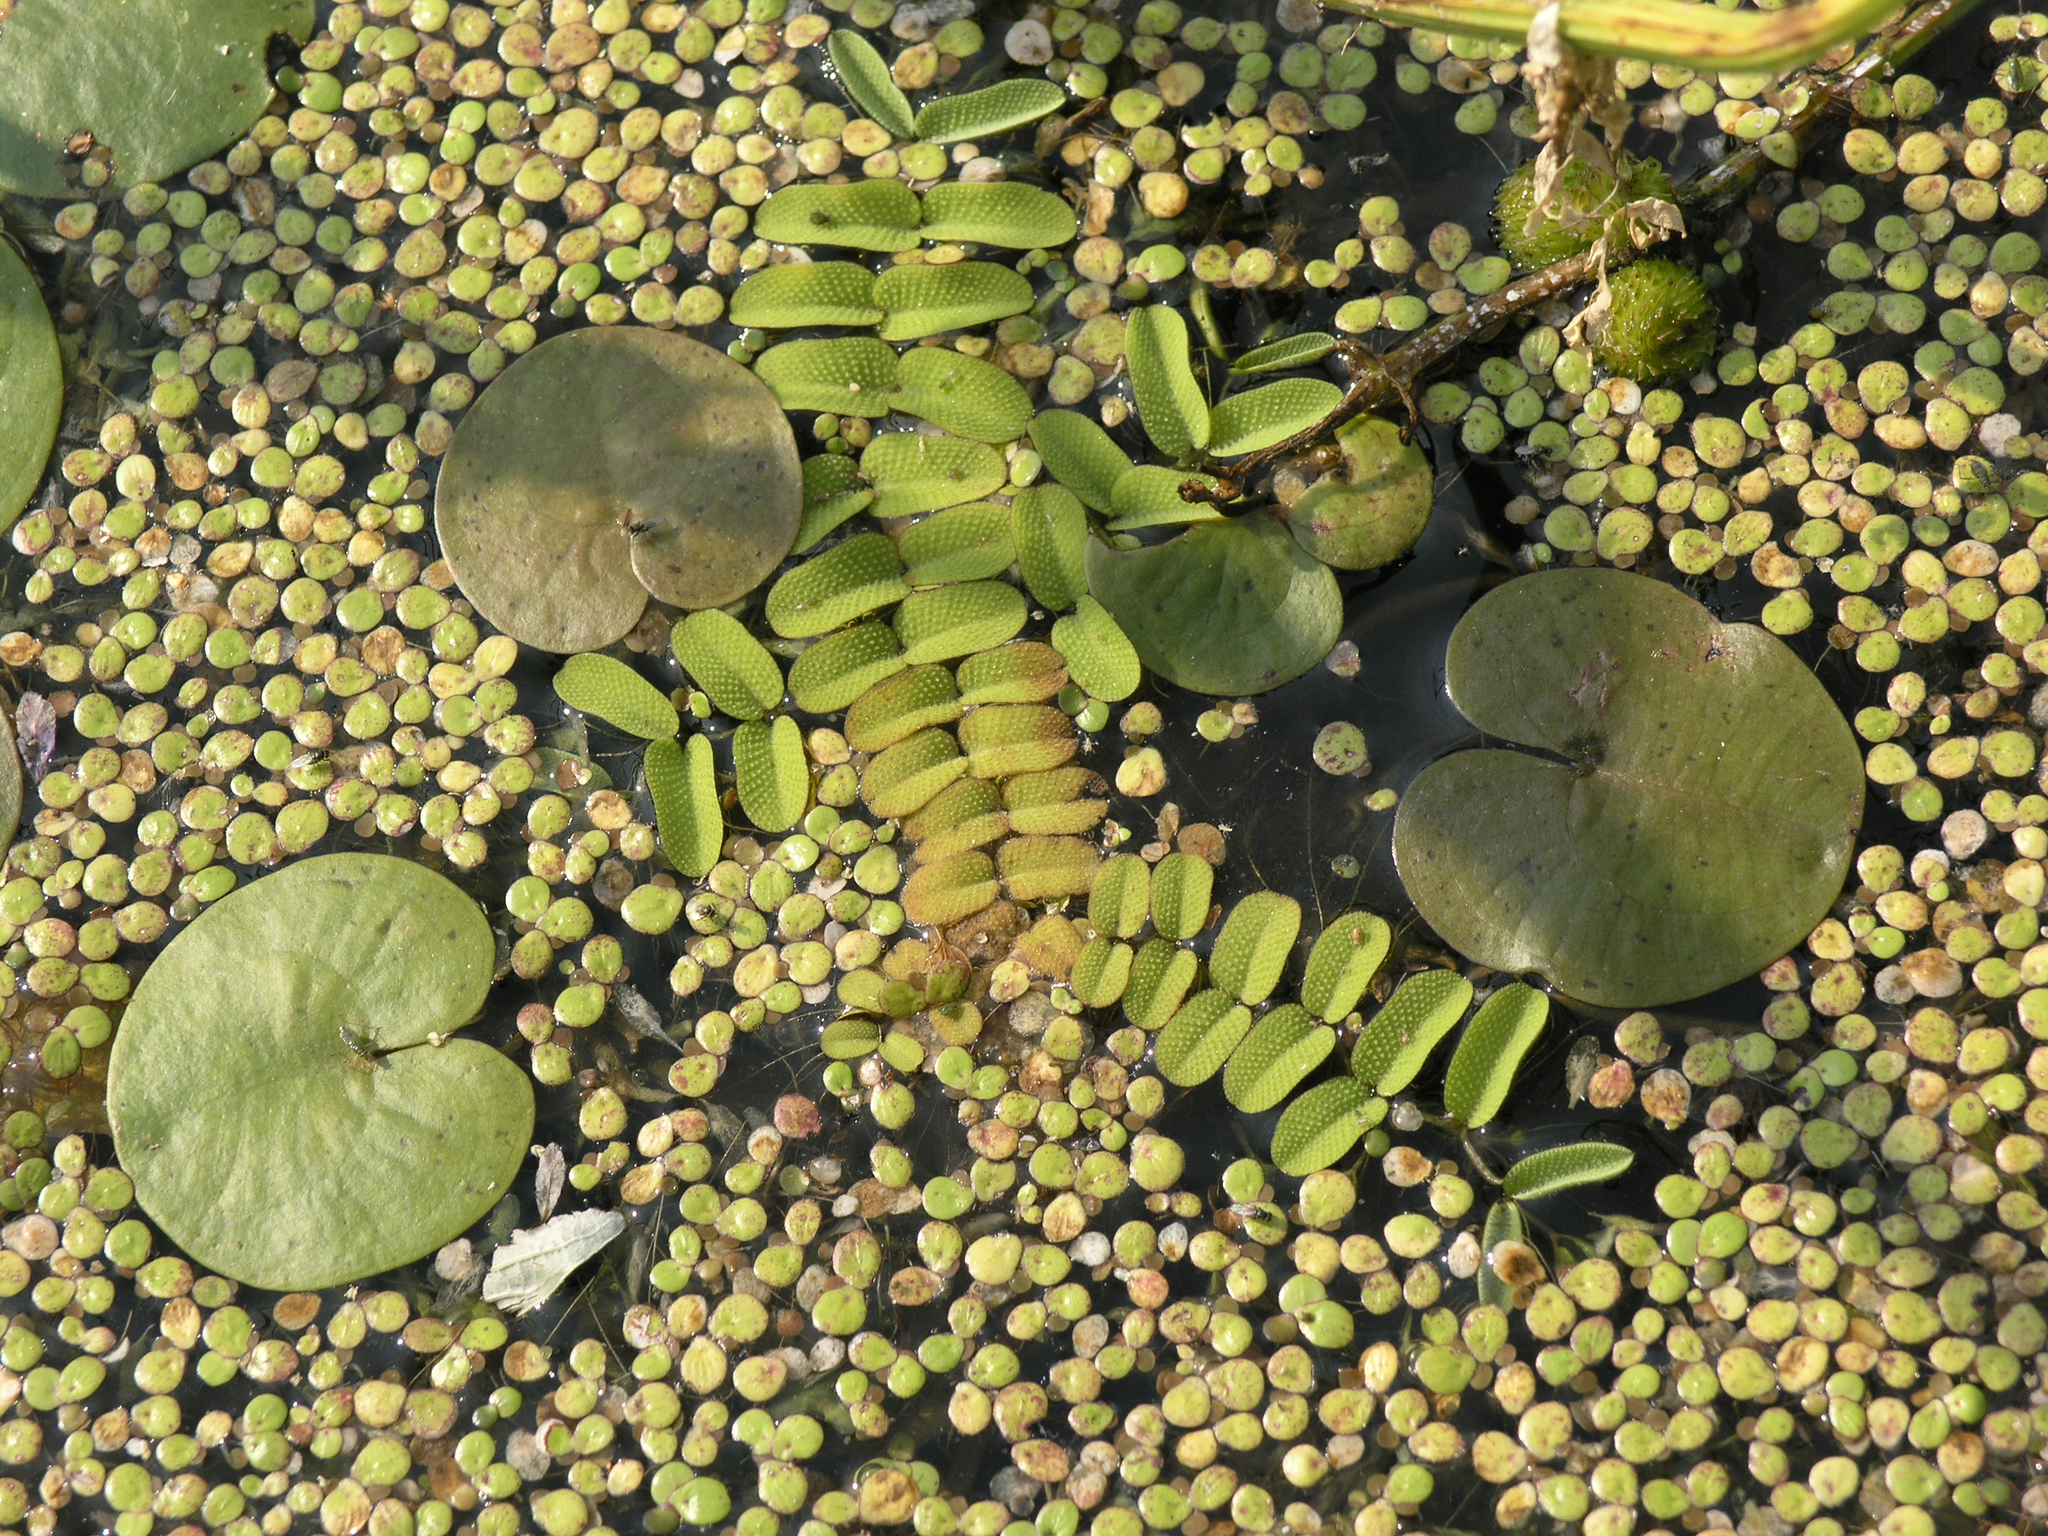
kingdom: Plantae
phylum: Tracheophyta
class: Liliopsida
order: Alismatales
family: Araceae
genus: Spirodela
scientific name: Spirodela polyrhiza
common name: Great duckweed
